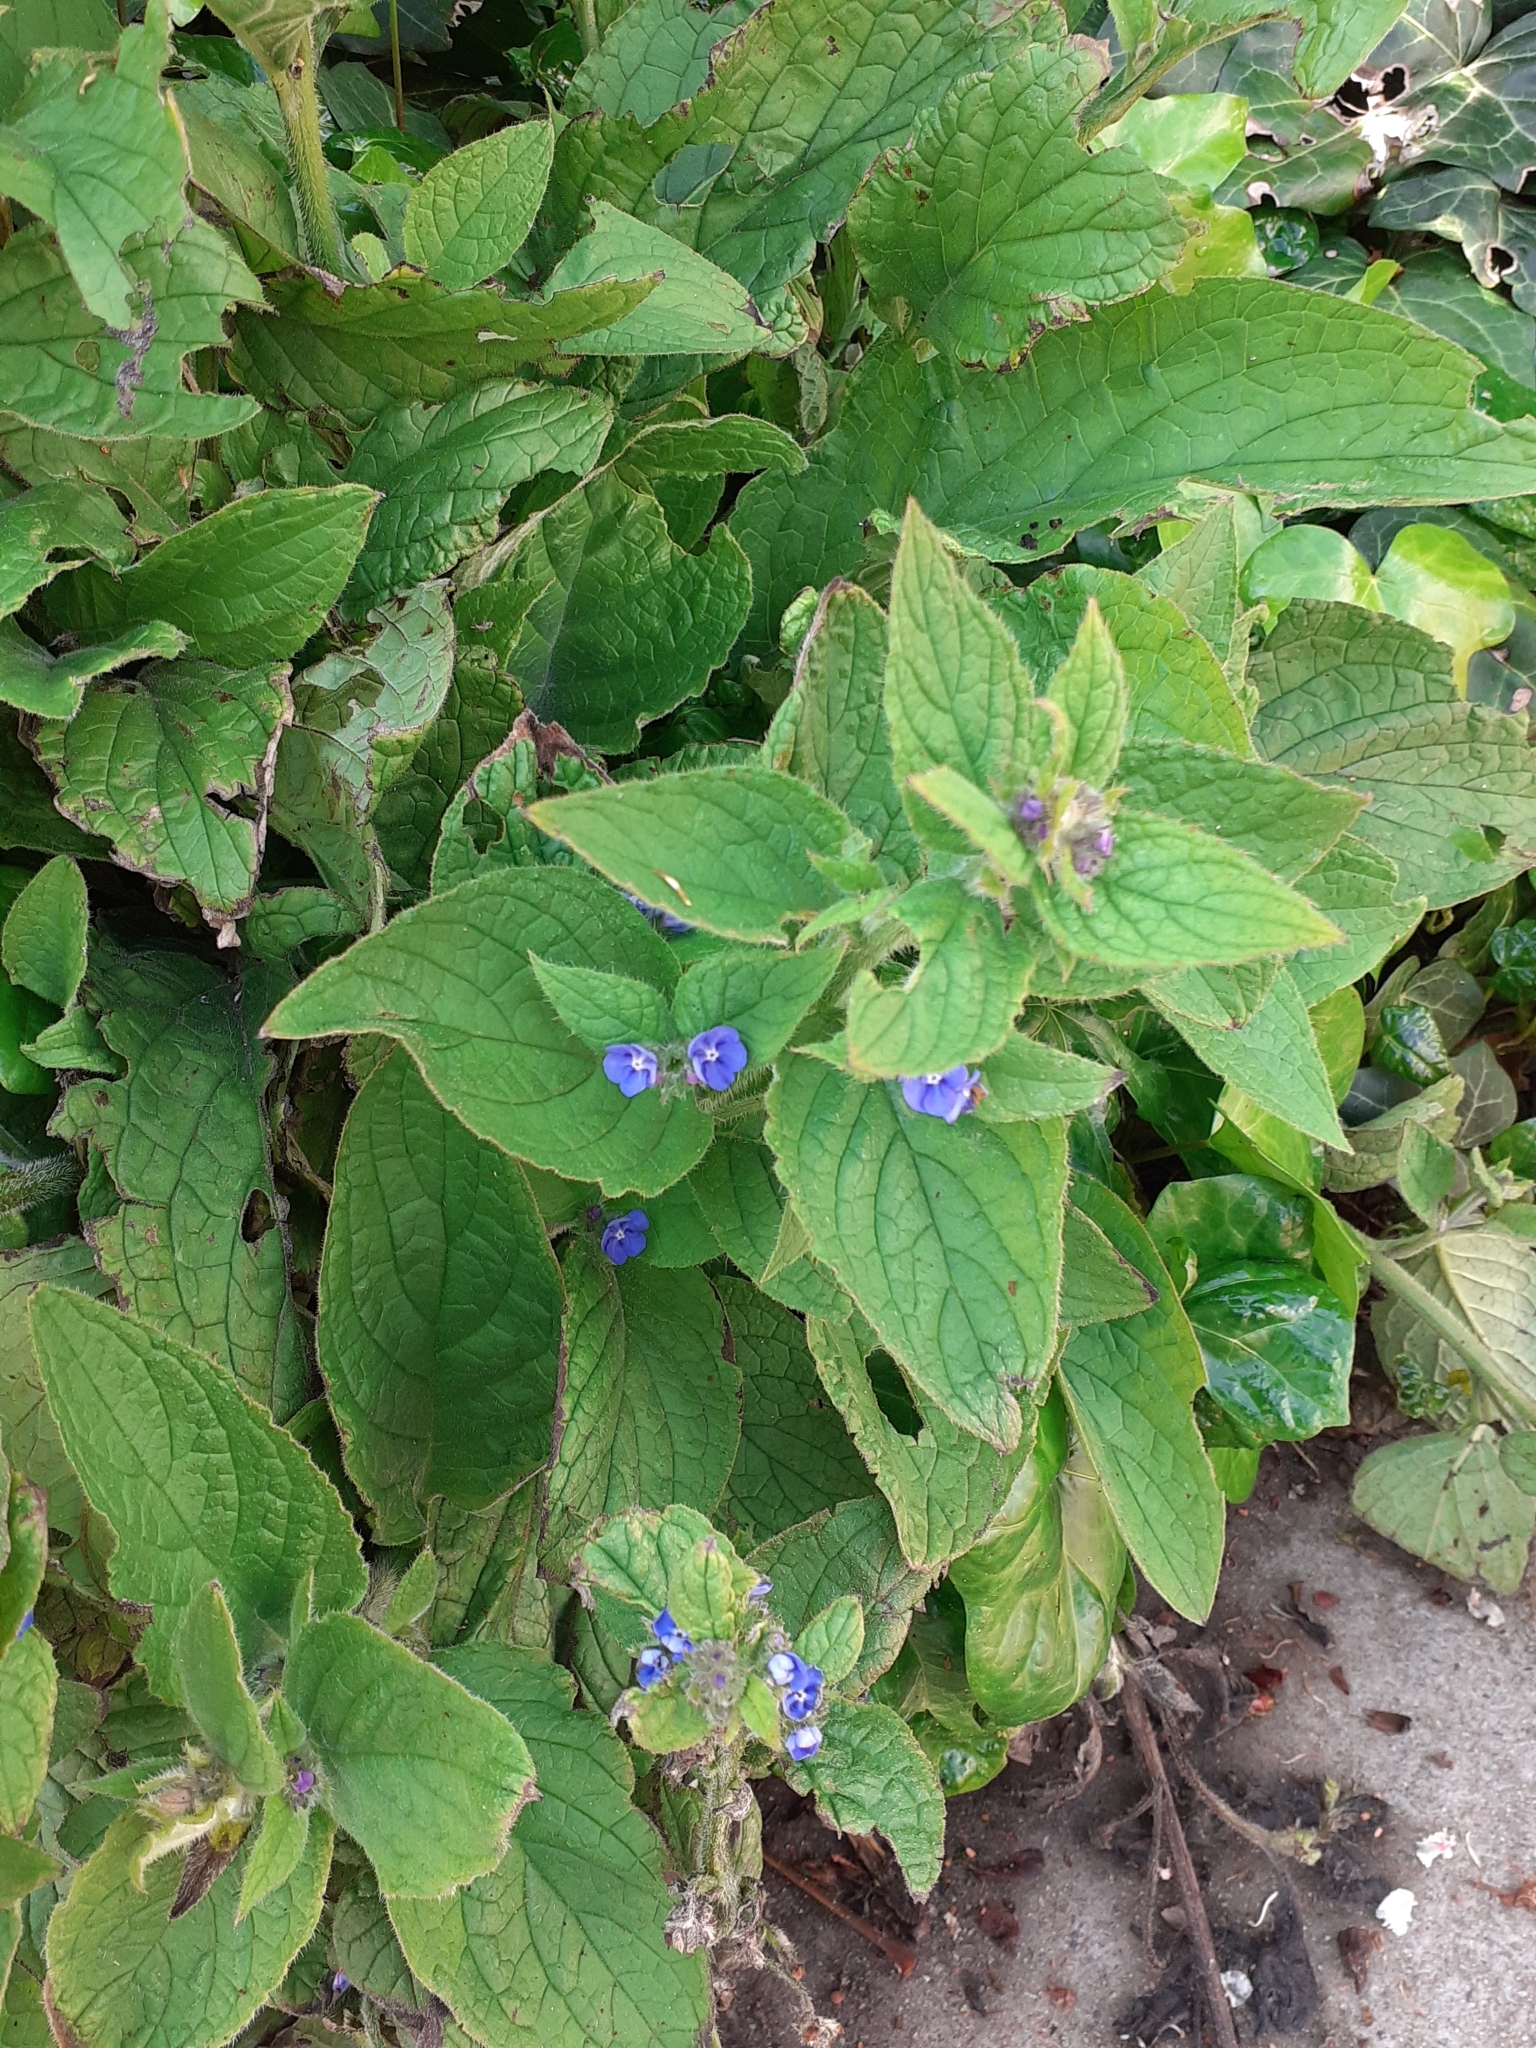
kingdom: Plantae
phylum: Tracheophyta
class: Magnoliopsida
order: Boraginales
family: Boraginaceae
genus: Pentaglottis
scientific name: Pentaglottis sempervirens
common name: Green alkanet
